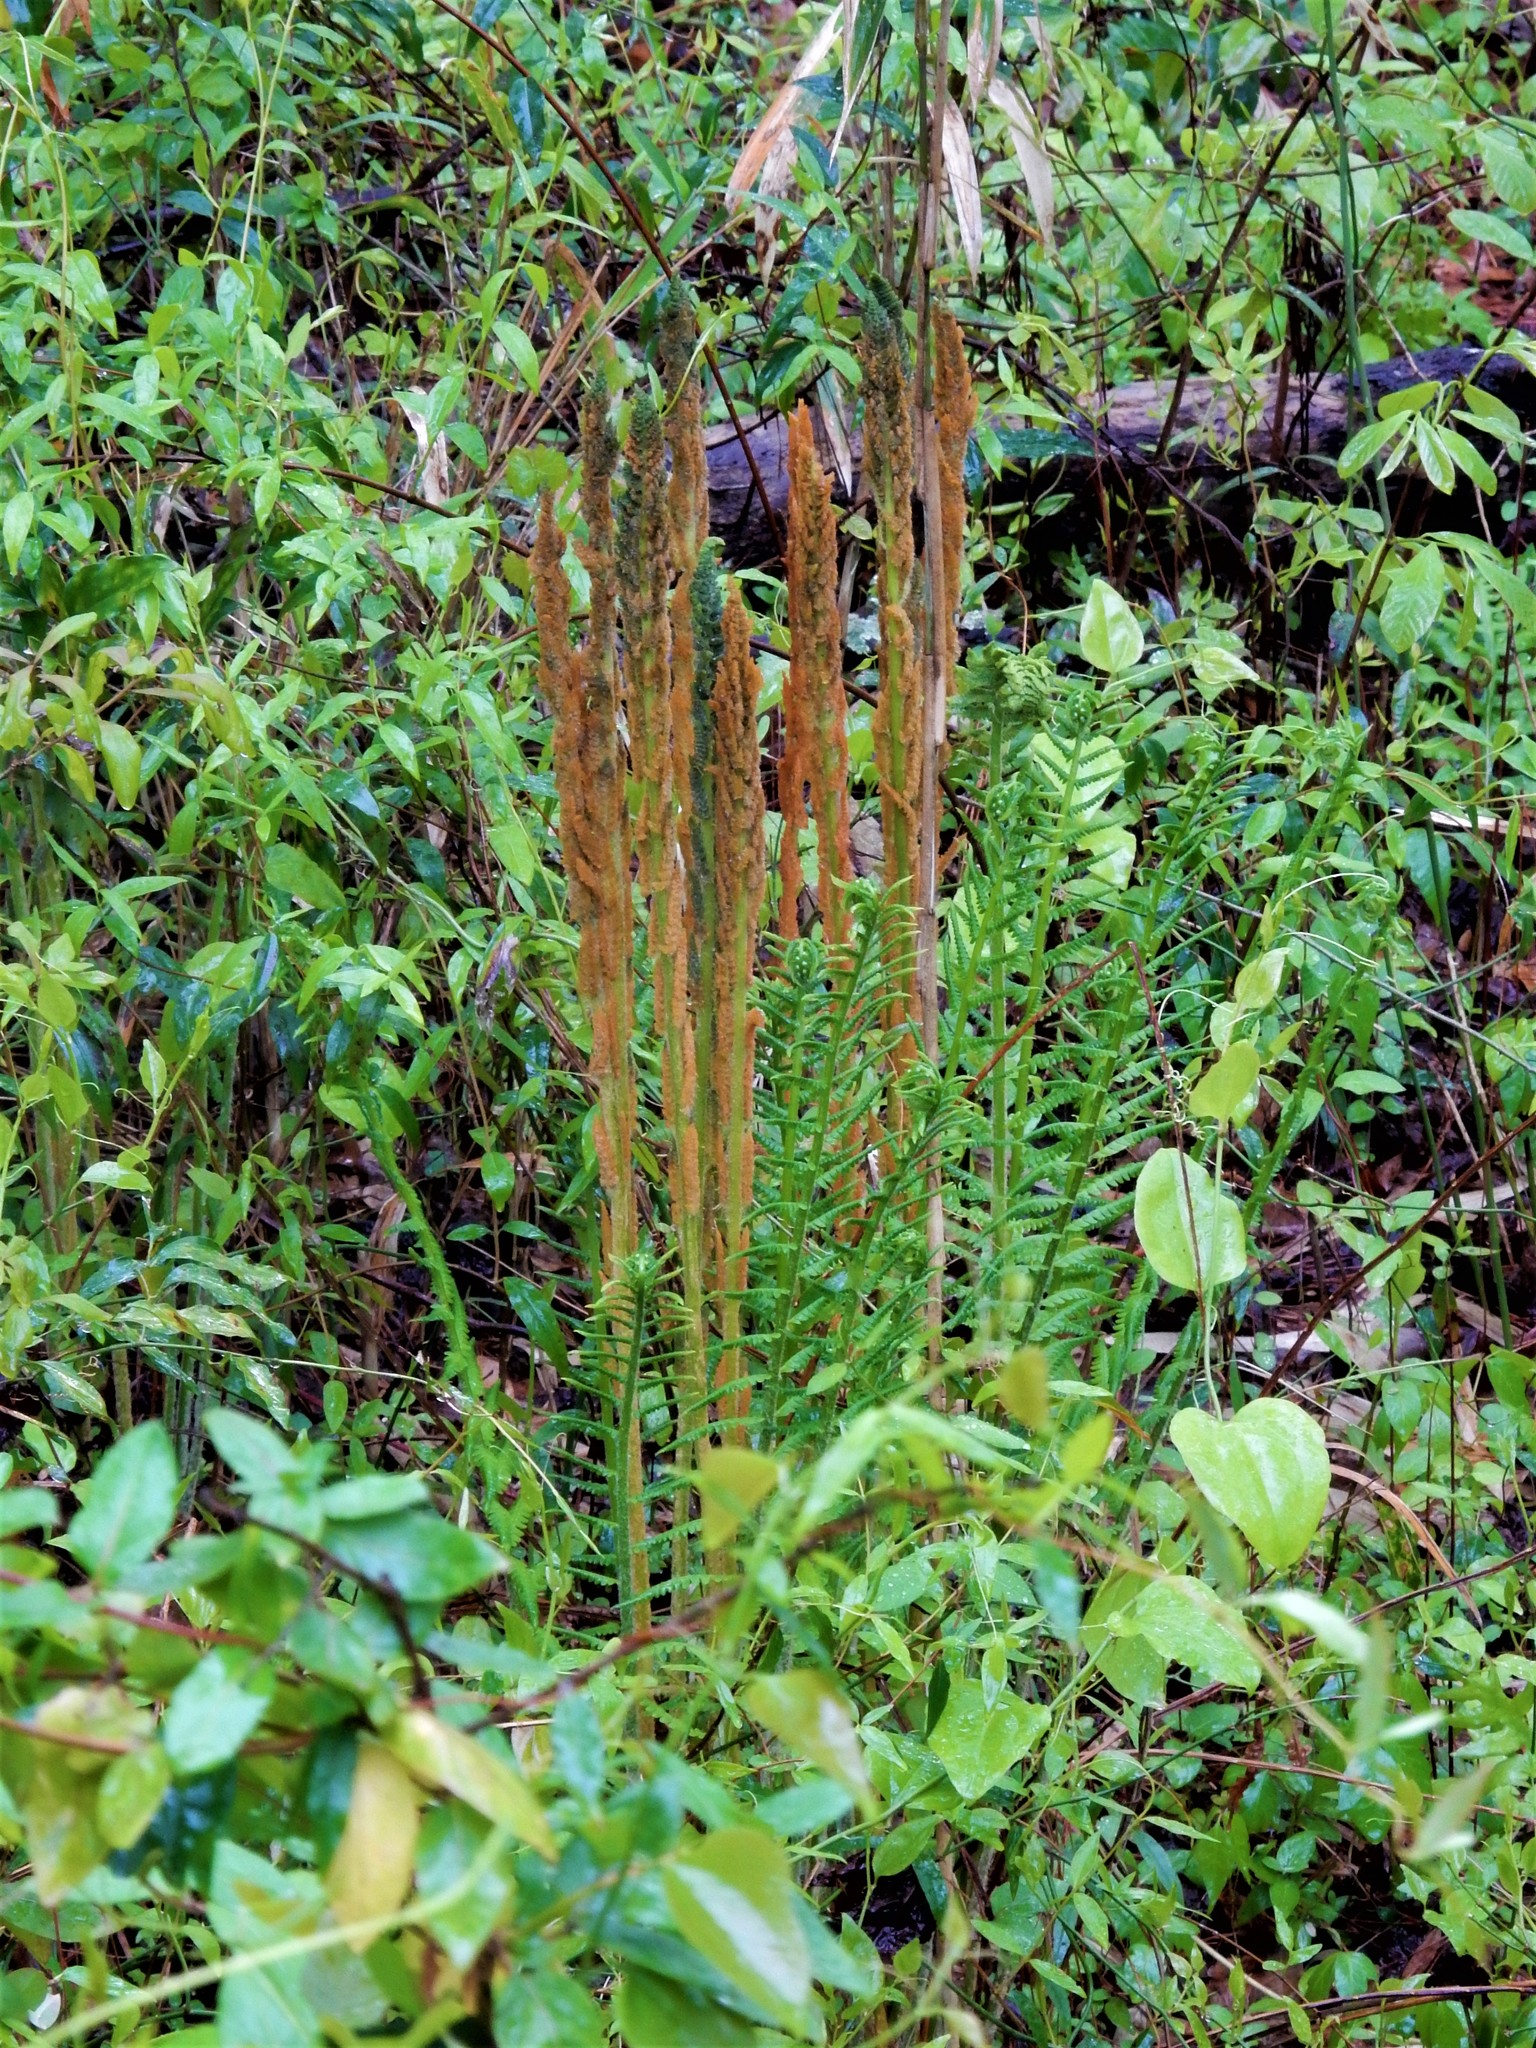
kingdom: Plantae
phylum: Tracheophyta
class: Polypodiopsida
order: Osmundales
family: Osmundaceae
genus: Osmundastrum
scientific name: Osmundastrum cinnamomeum
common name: Cinnamon fern
